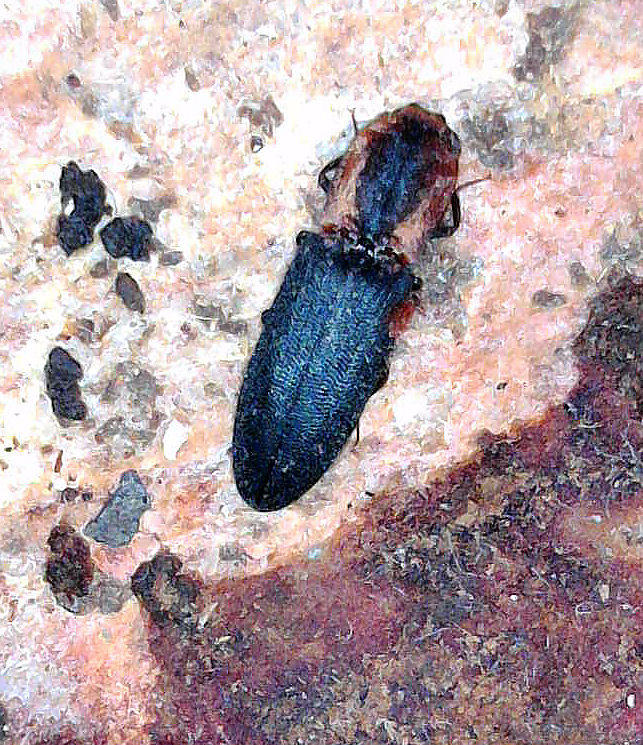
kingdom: Animalia
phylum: Arthropoda
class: Insecta
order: Coleoptera
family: Elateridae
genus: Lacon
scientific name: Lacon discoideus
